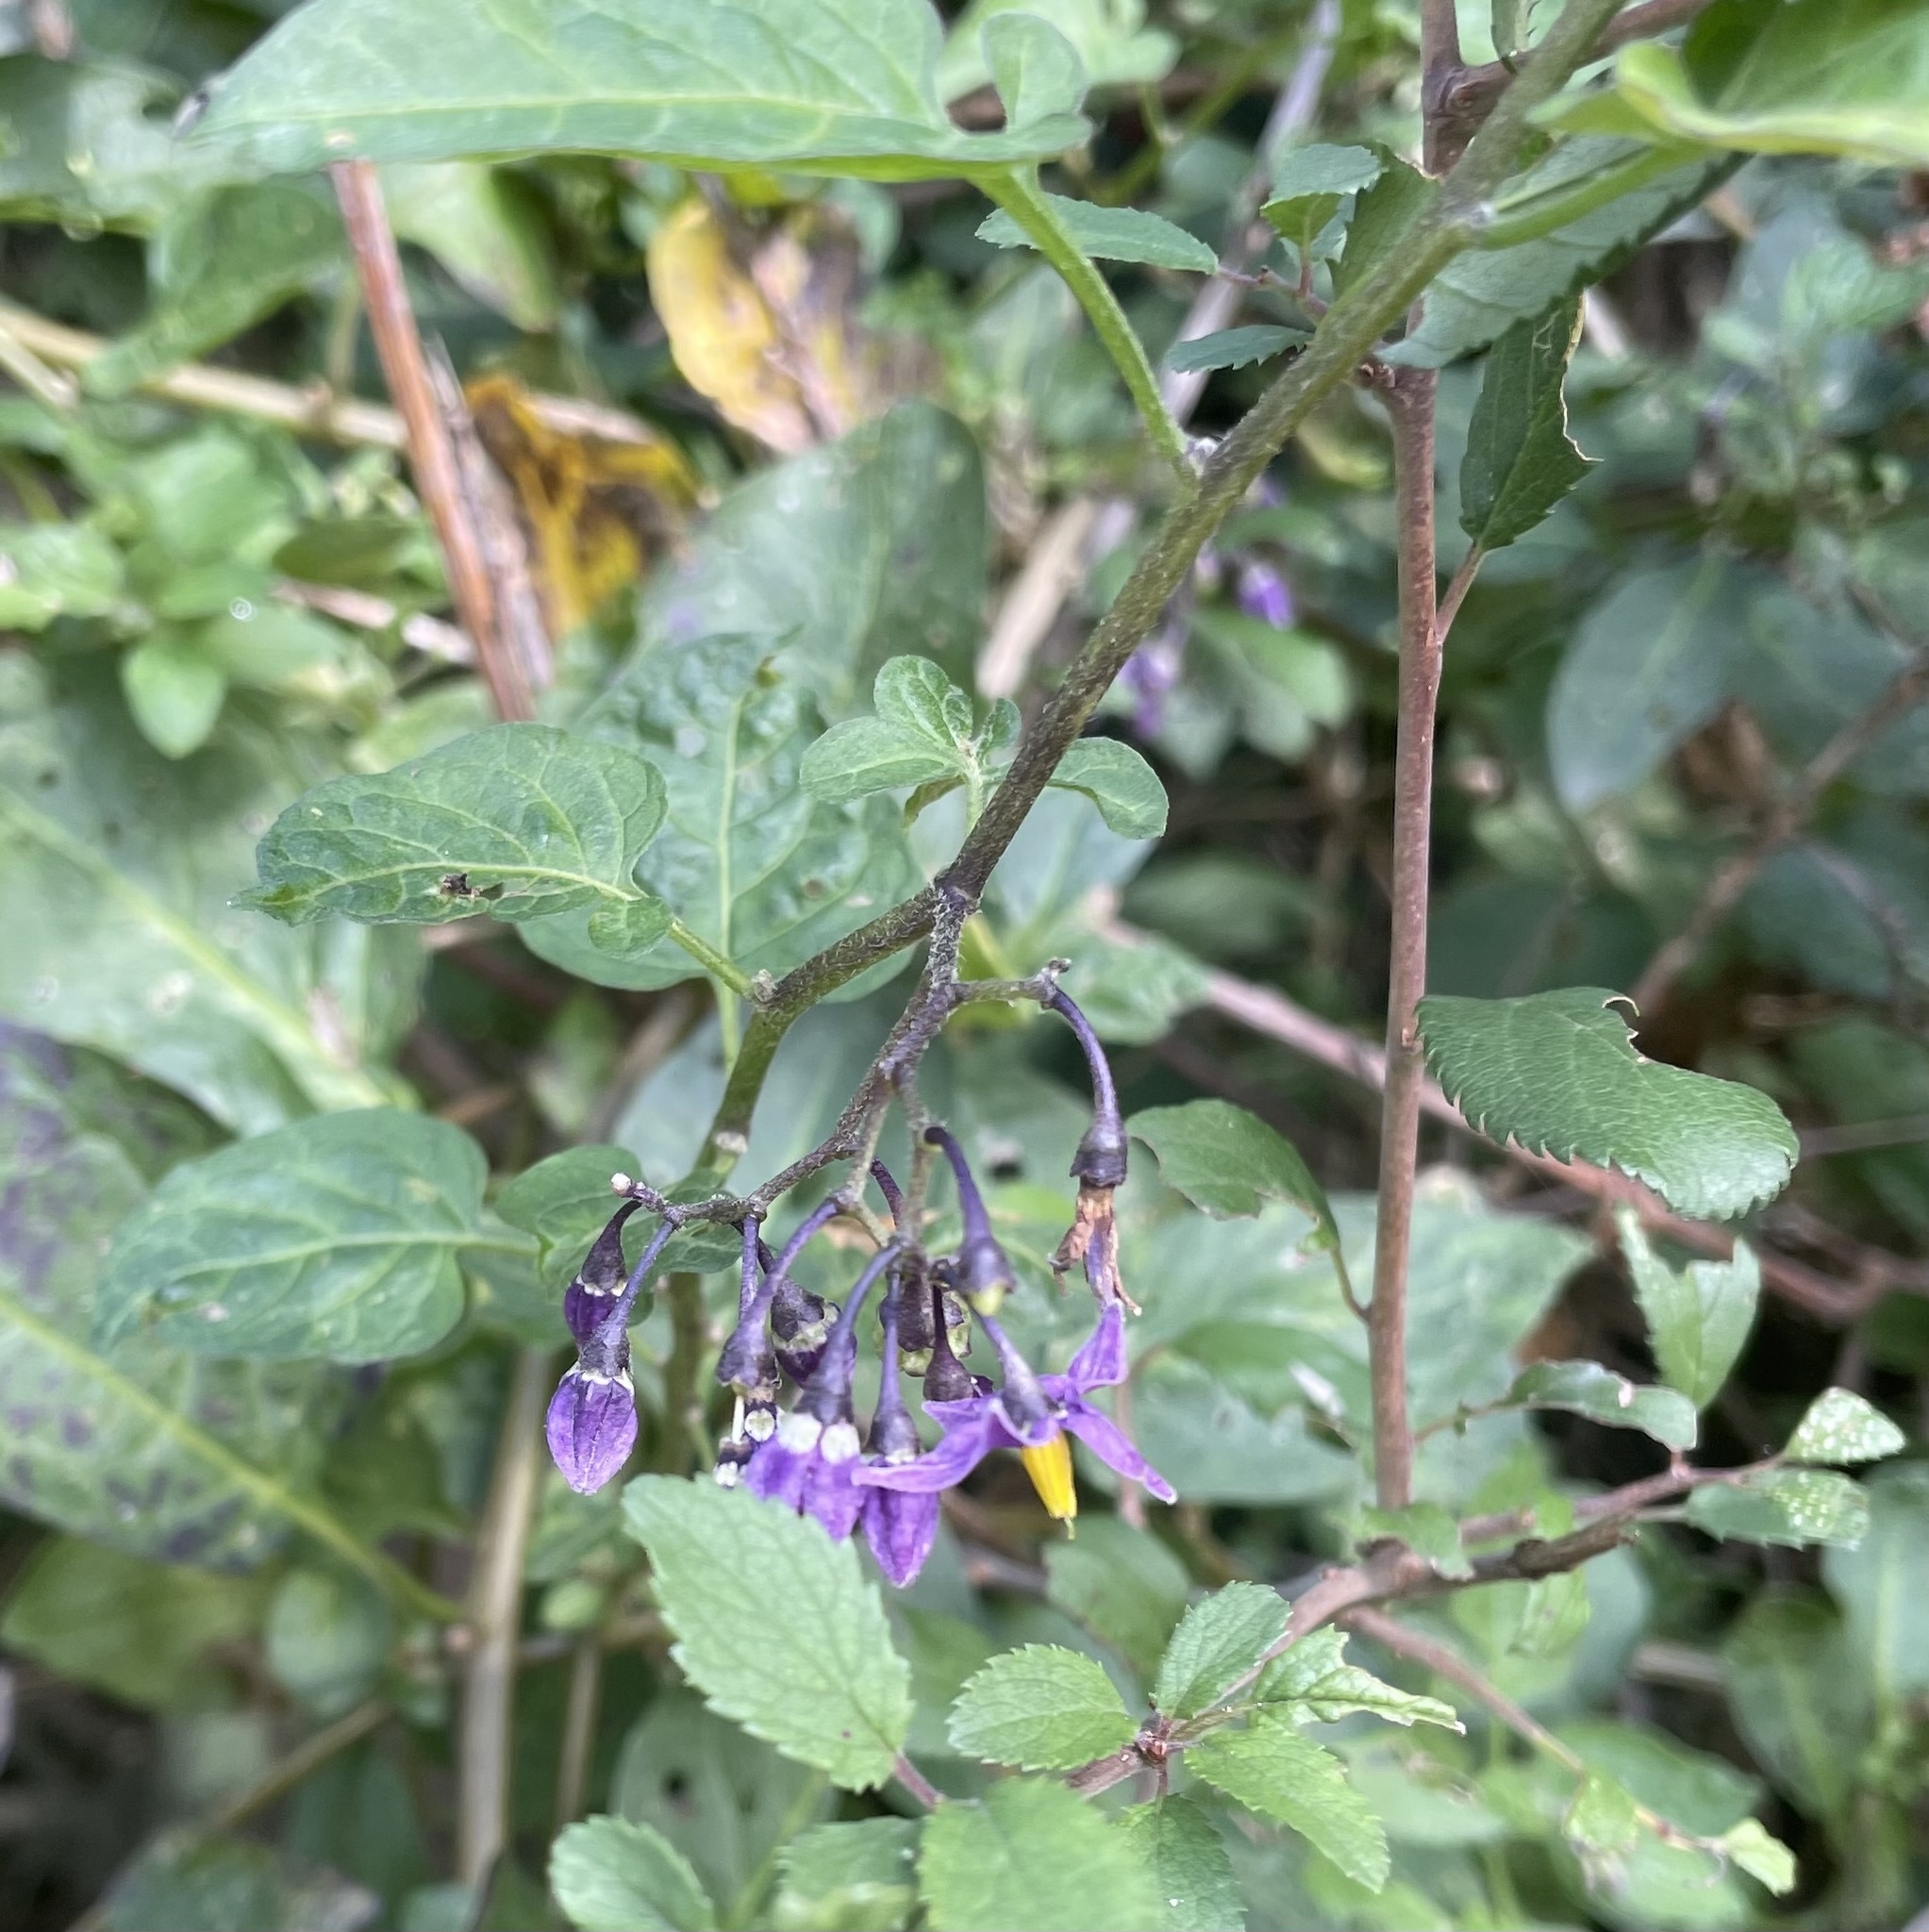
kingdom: Plantae
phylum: Tracheophyta
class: Magnoliopsida
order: Solanales
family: Solanaceae
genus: Solanum
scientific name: Solanum dulcamara
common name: Climbing nightshade
